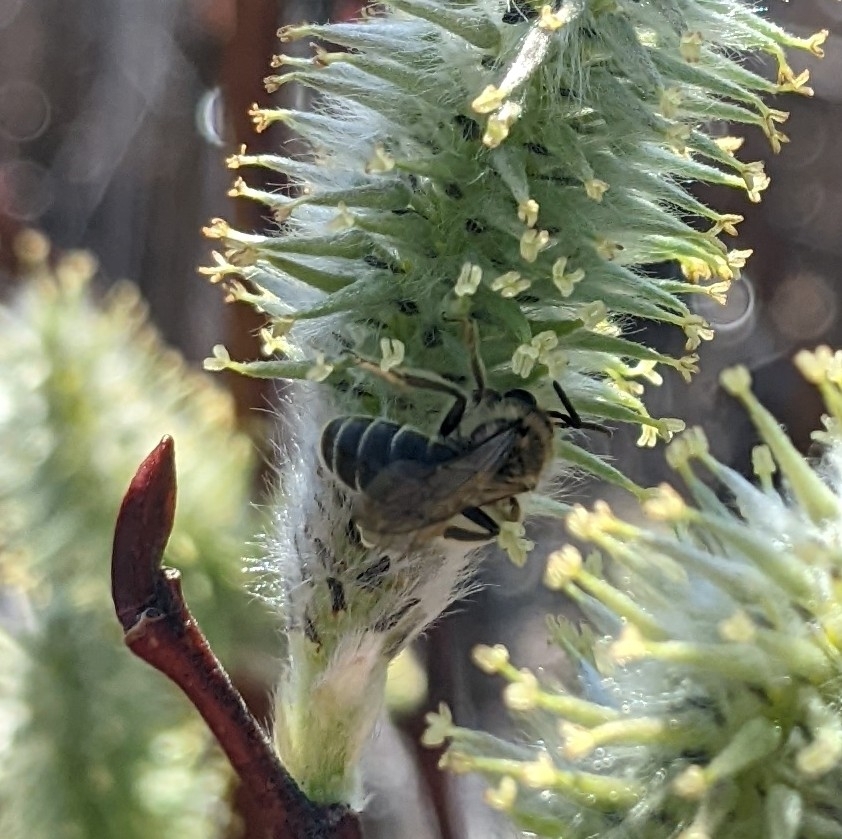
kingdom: Animalia
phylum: Arthropoda
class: Insecta
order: Hymenoptera
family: Colletidae
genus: Colletes
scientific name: Colletes inaequalis
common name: Unequal cellophane bee
